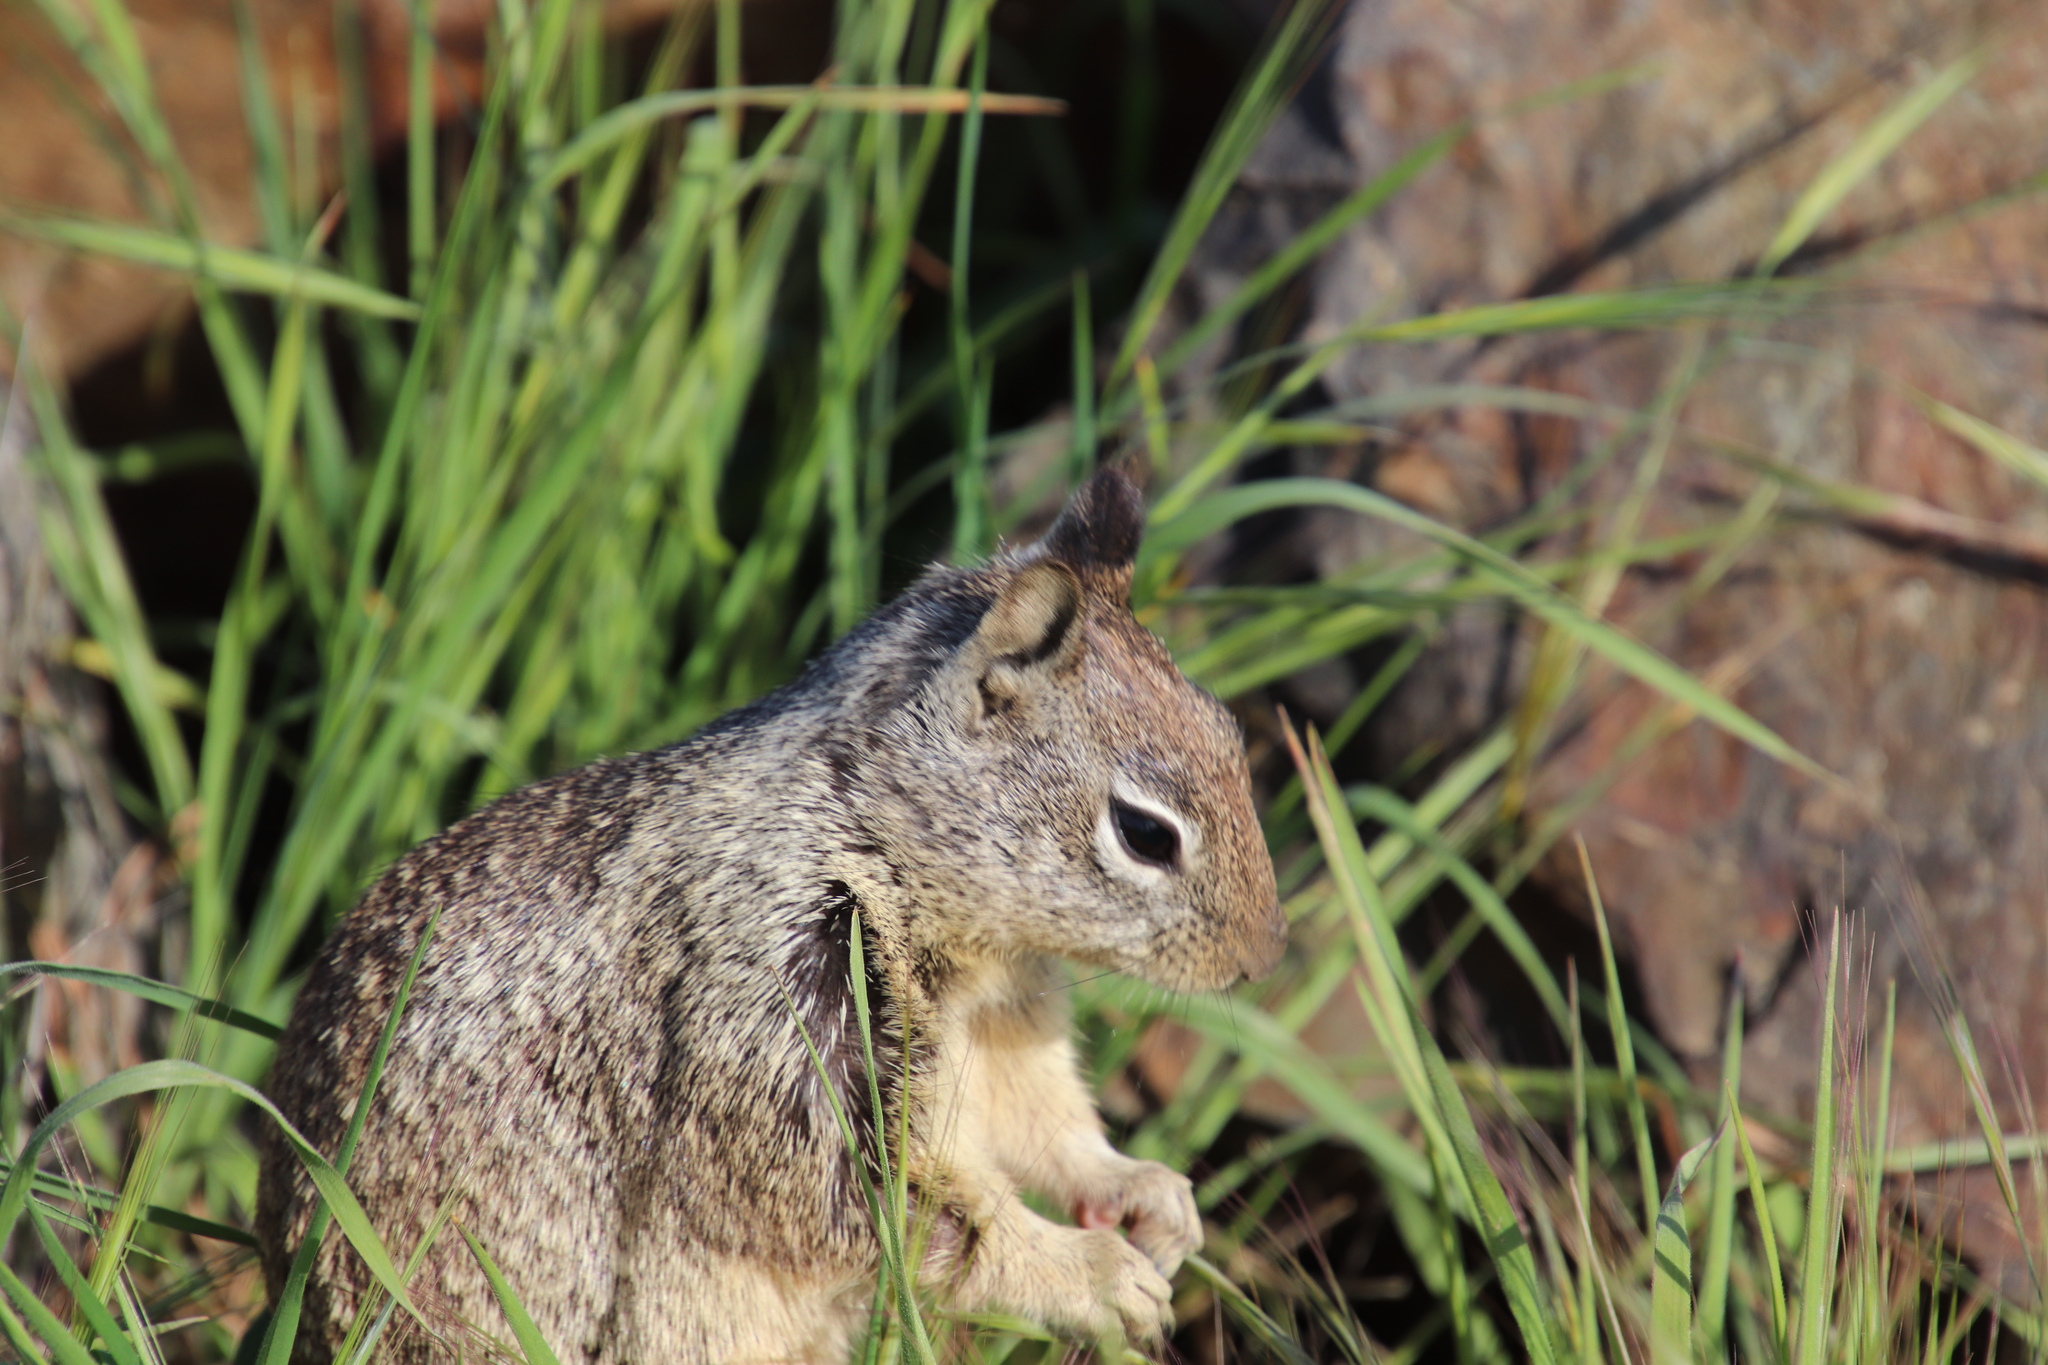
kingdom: Animalia
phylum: Chordata
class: Mammalia
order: Rodentia
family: Sciuridae
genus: Otospermophilus
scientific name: Otospermophilus beecheyi
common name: California ground squirrel
